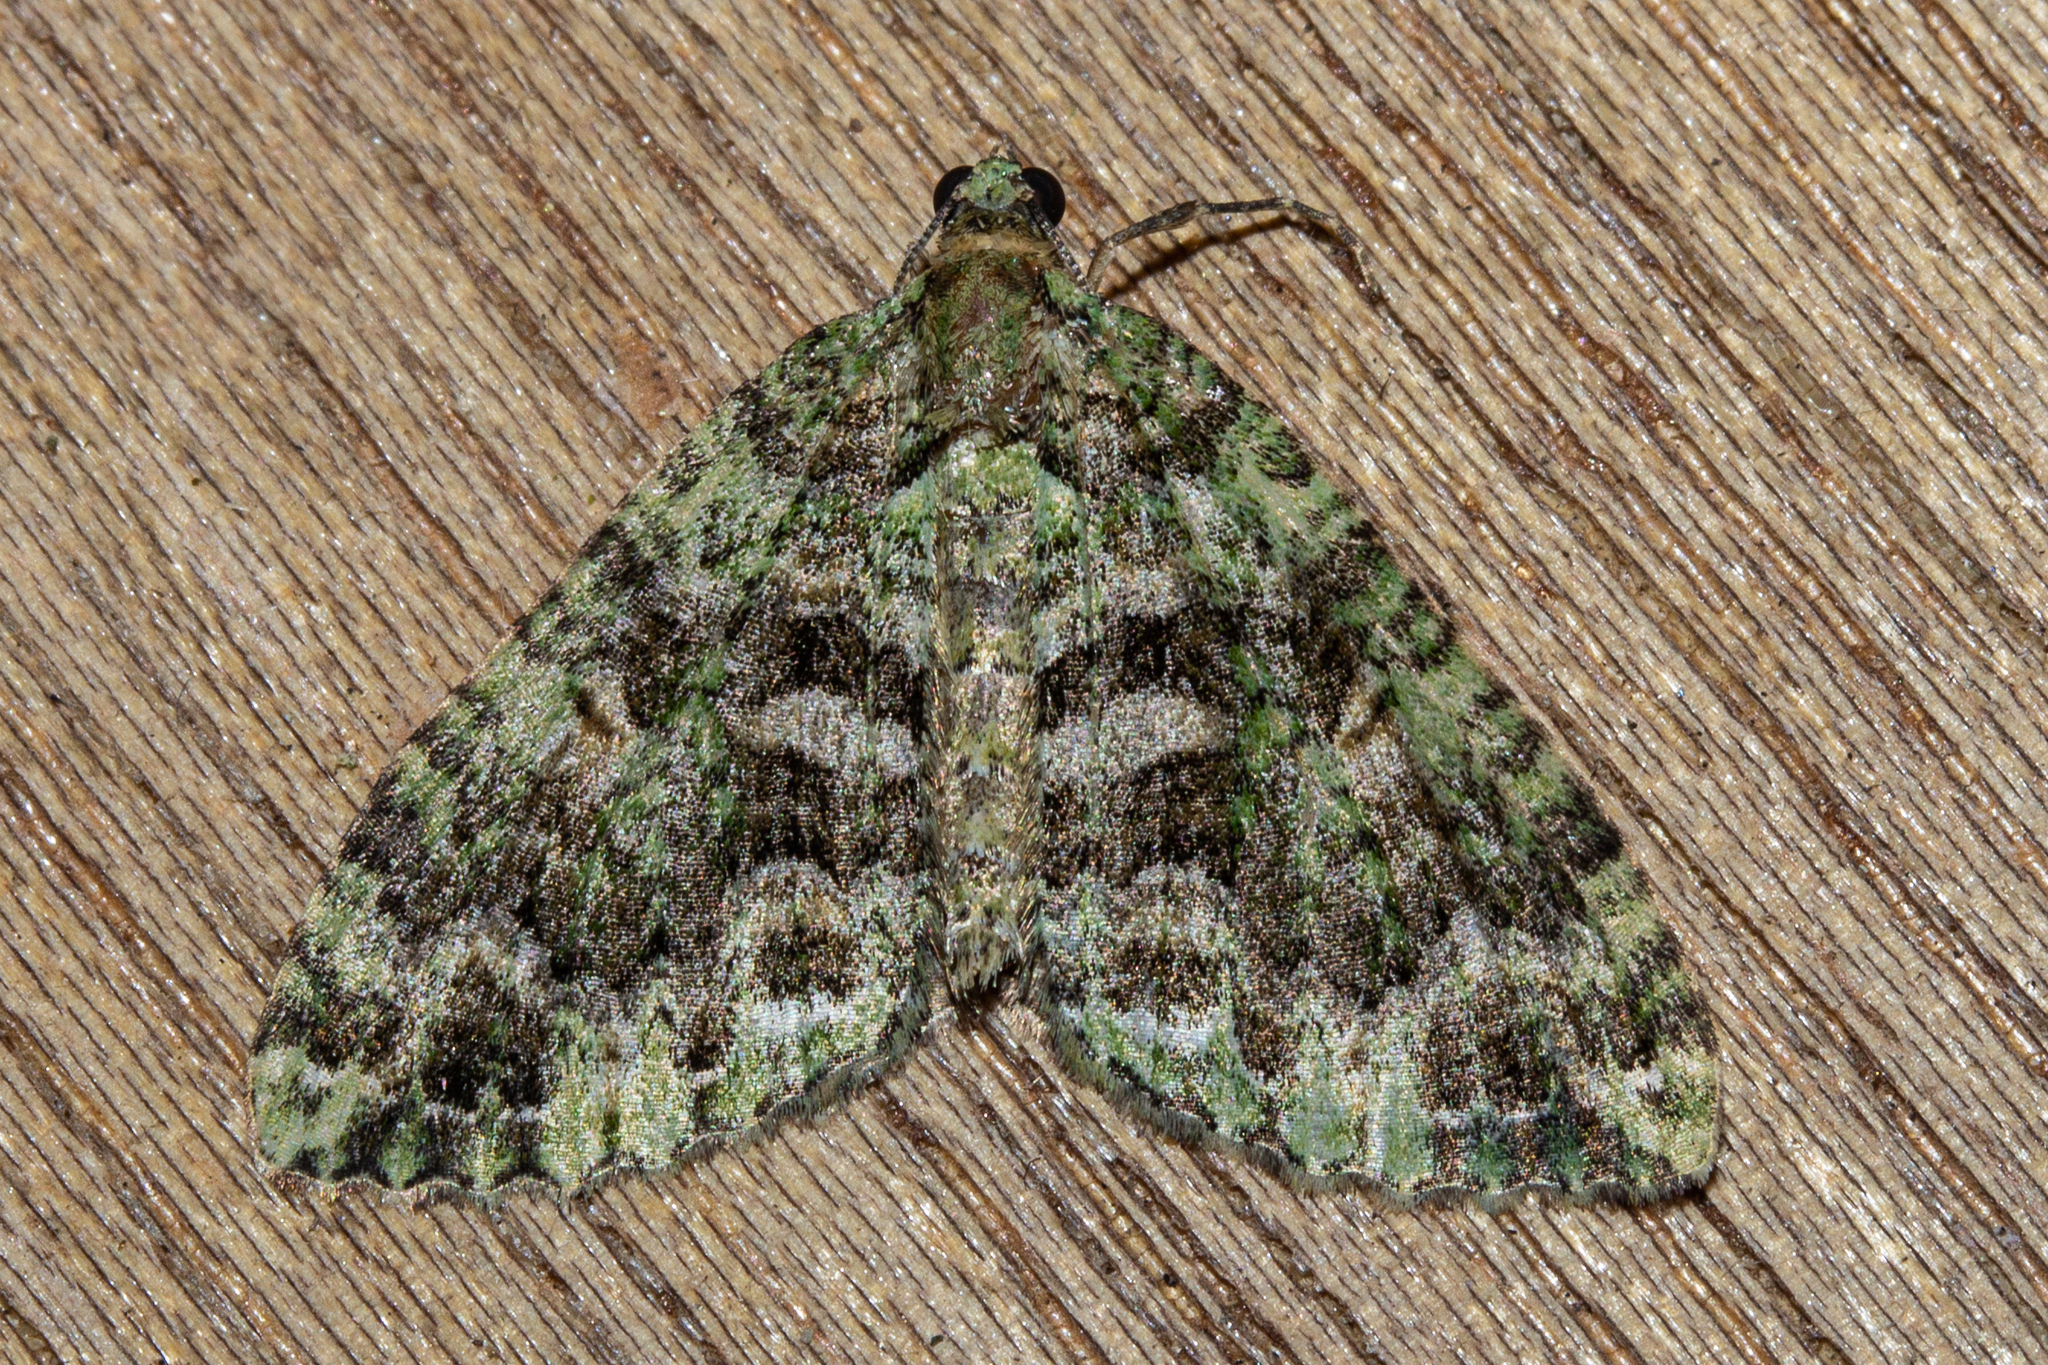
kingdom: Animalia
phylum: Arthropoda
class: Insecta
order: Lepidoptera
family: Geometridae
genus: Austrocidaria
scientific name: Austrocidaria similata
